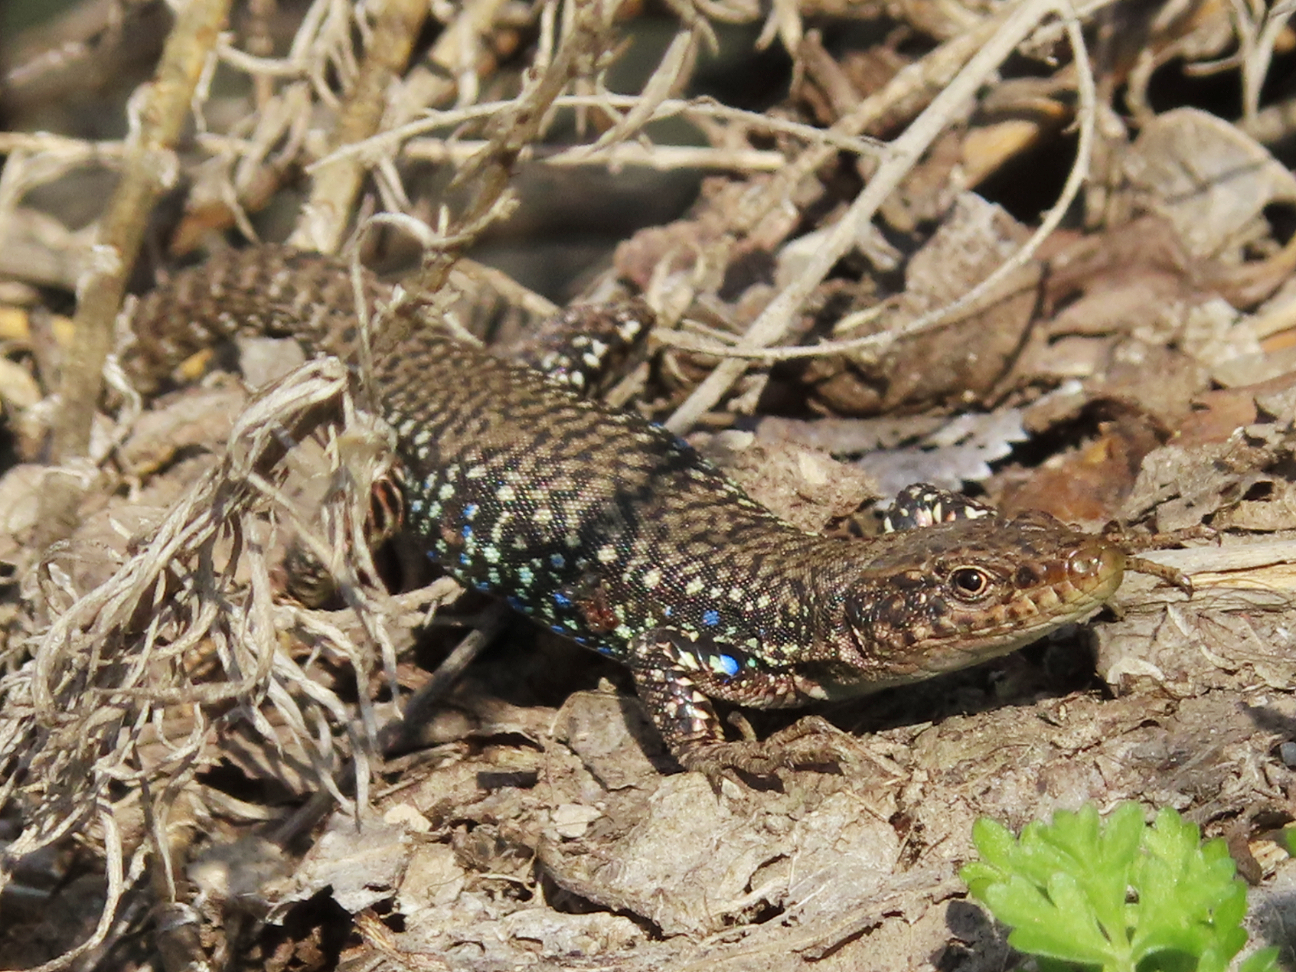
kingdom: Animalia
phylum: Chordata
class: Squamata
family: Lacertidae
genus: Darevskia
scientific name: Darevskia
